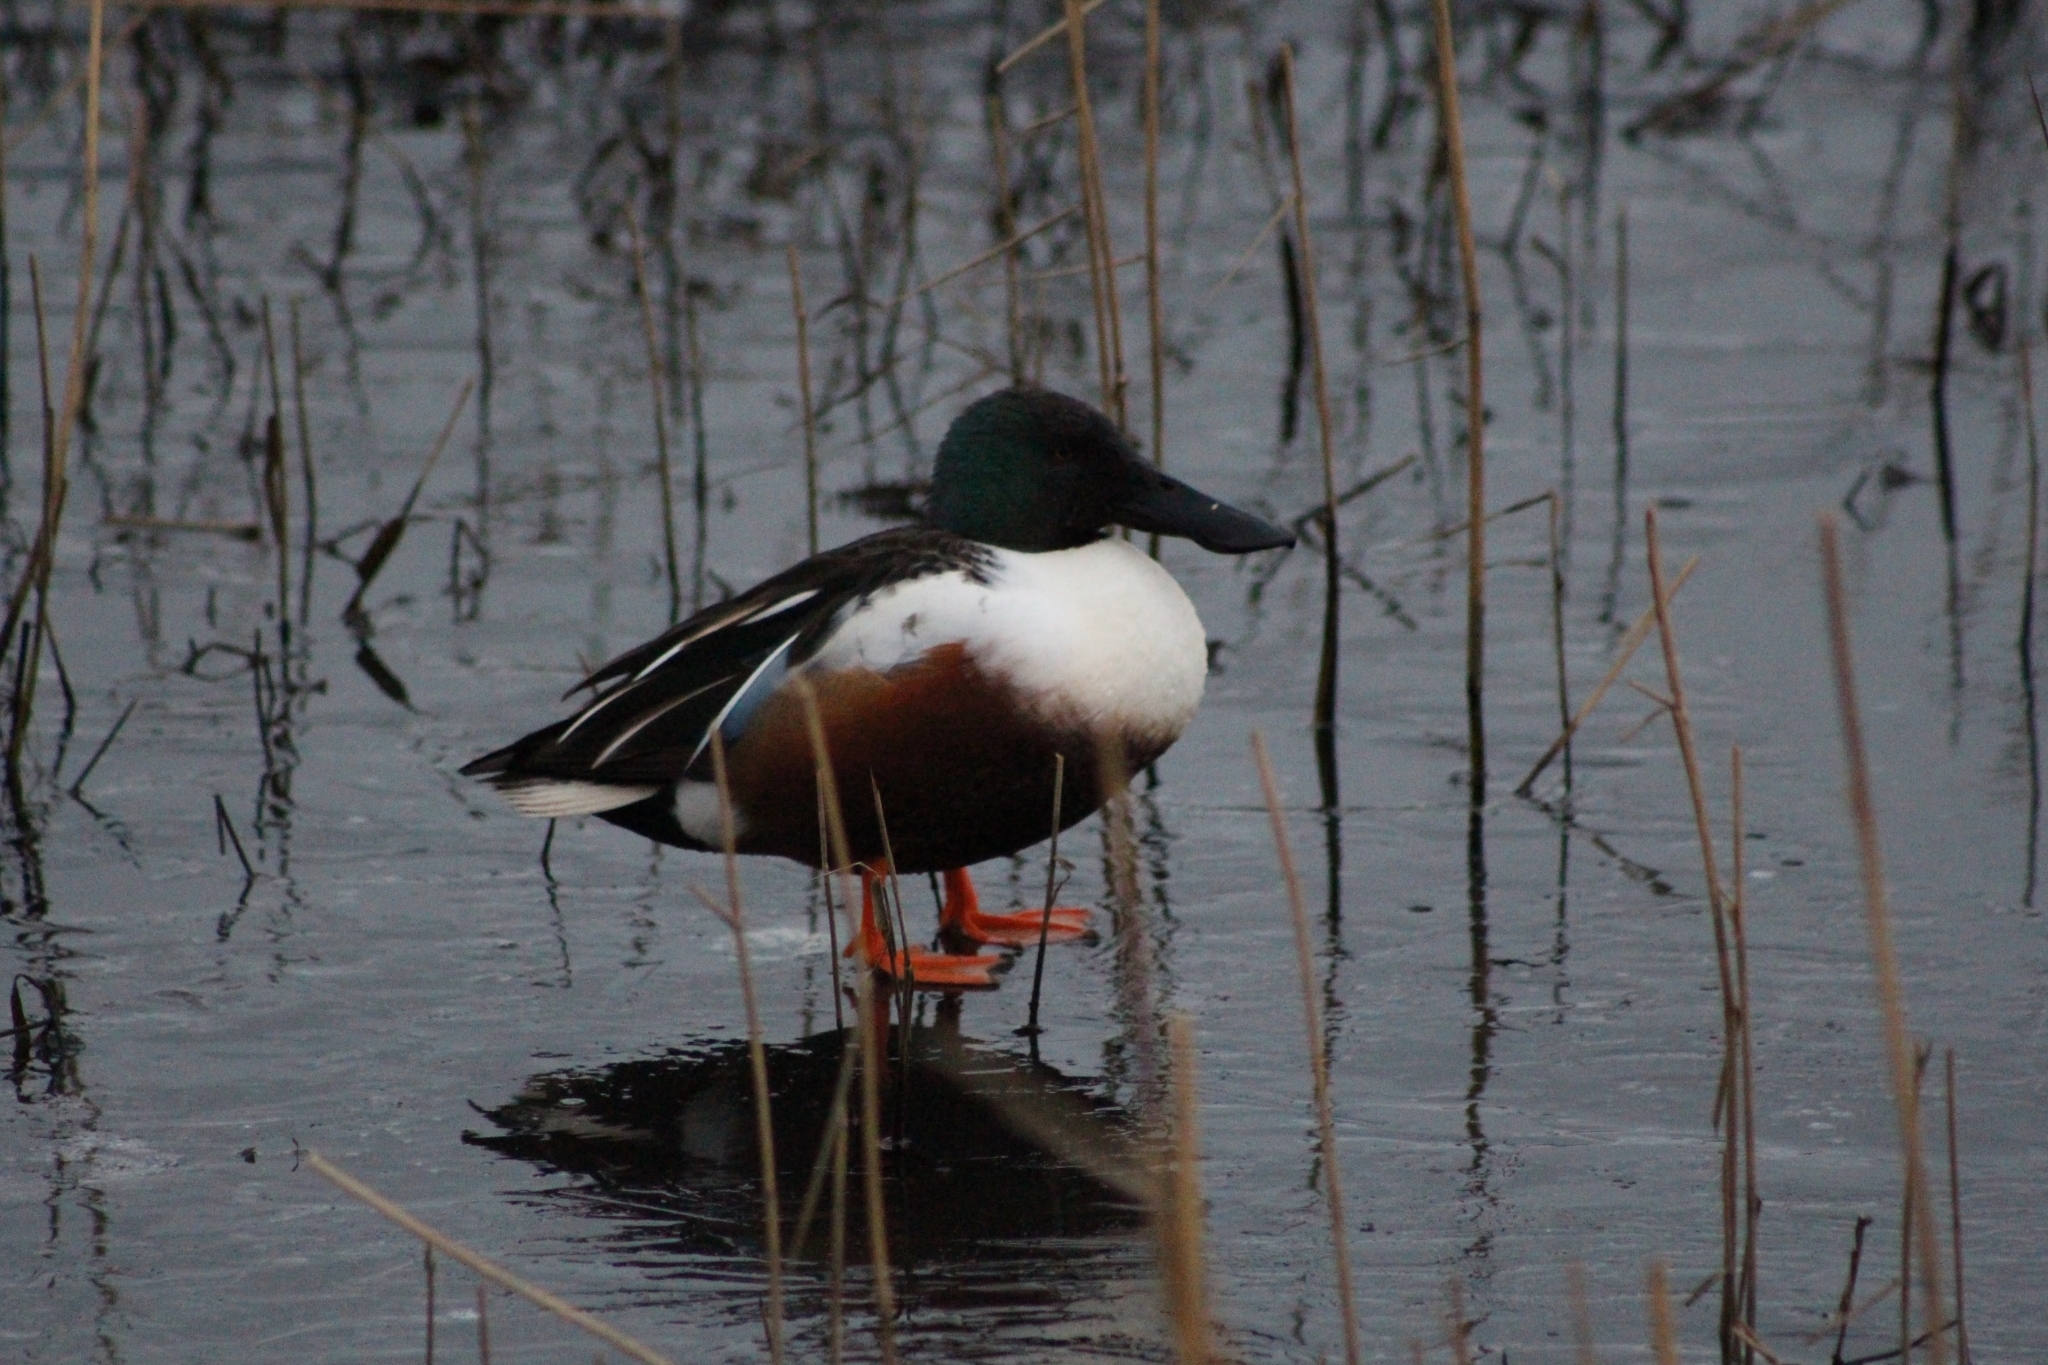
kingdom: Animalia
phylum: Chordata
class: Aves
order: Anseriformes
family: Anatidae
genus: Spatula
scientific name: Spatula clypeata
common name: Northern shoveler
